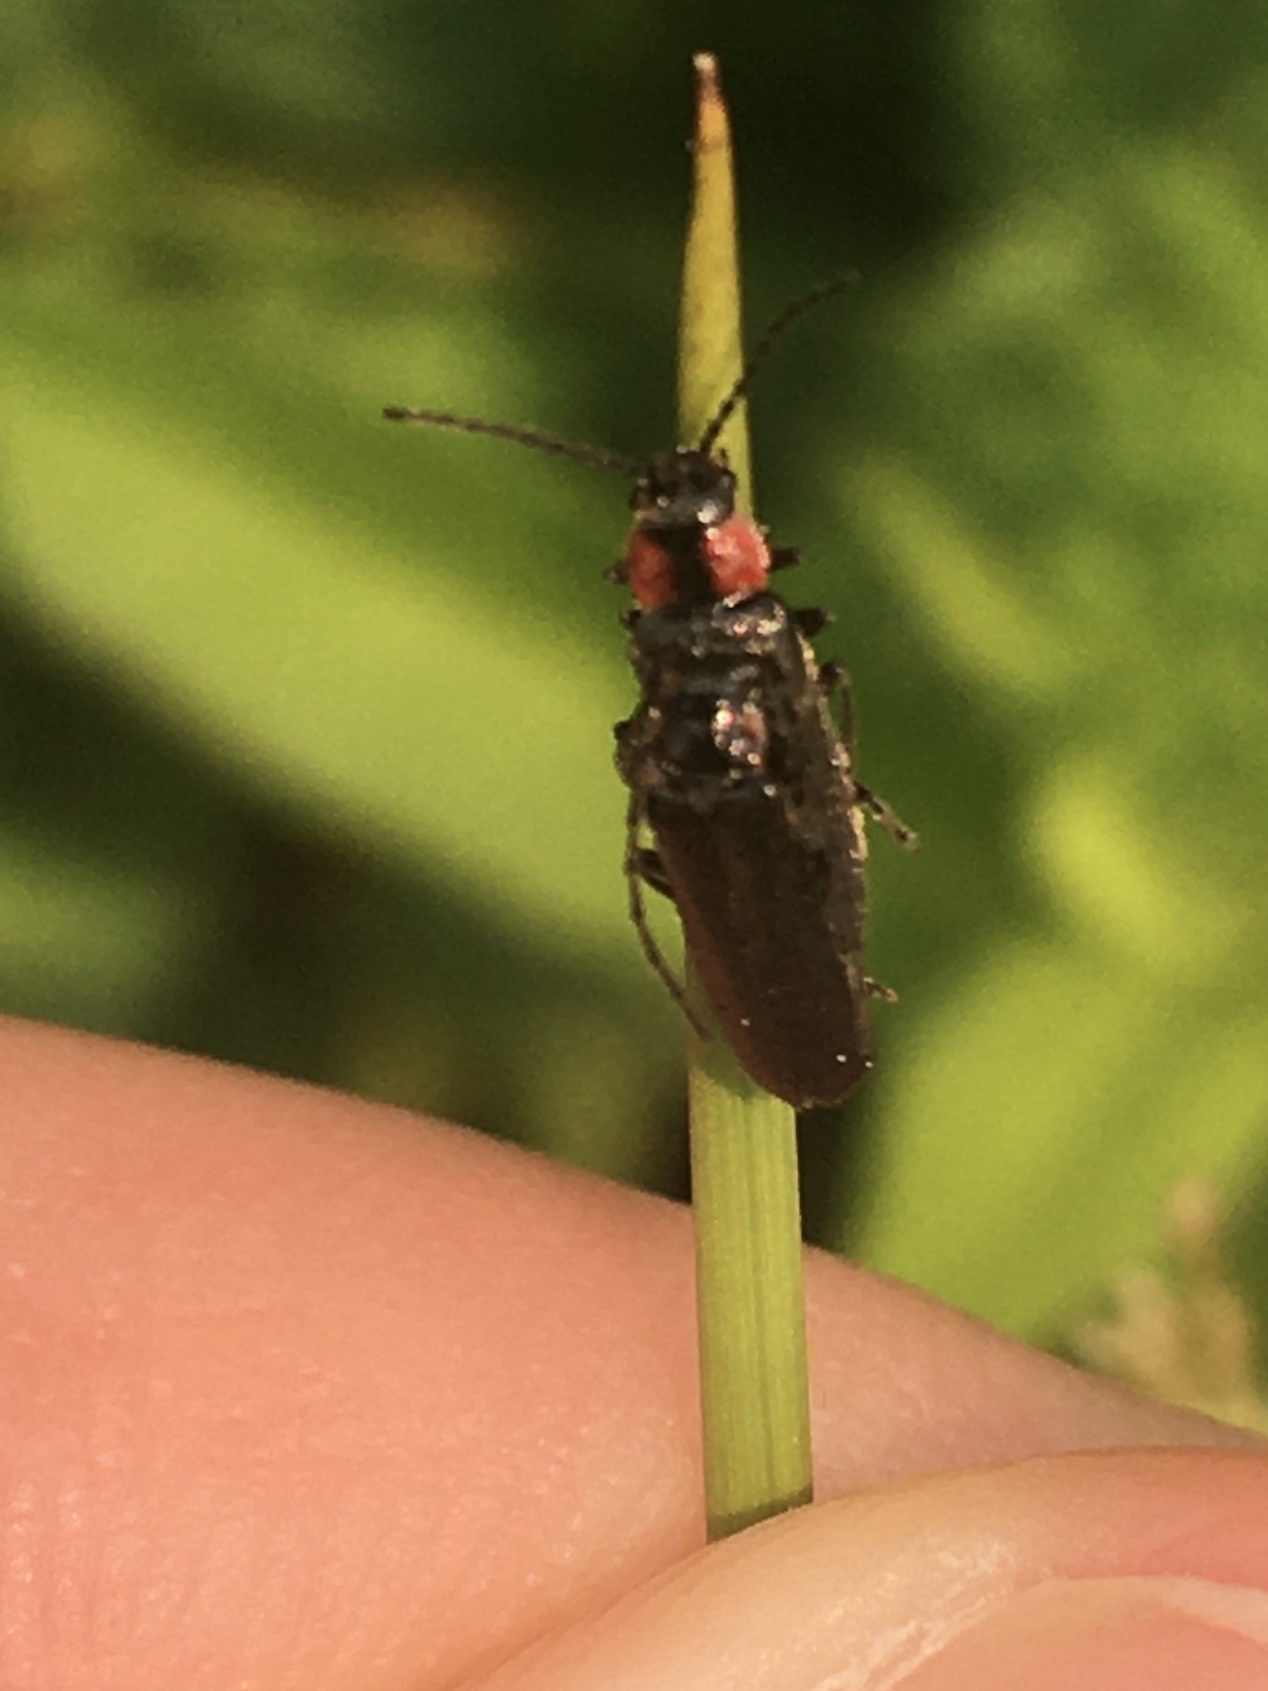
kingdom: Animalia
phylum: Arthropoda
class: Insecta
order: Coleoptera
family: Cantharidae
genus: Cantharis
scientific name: Cantharis tuberculata
